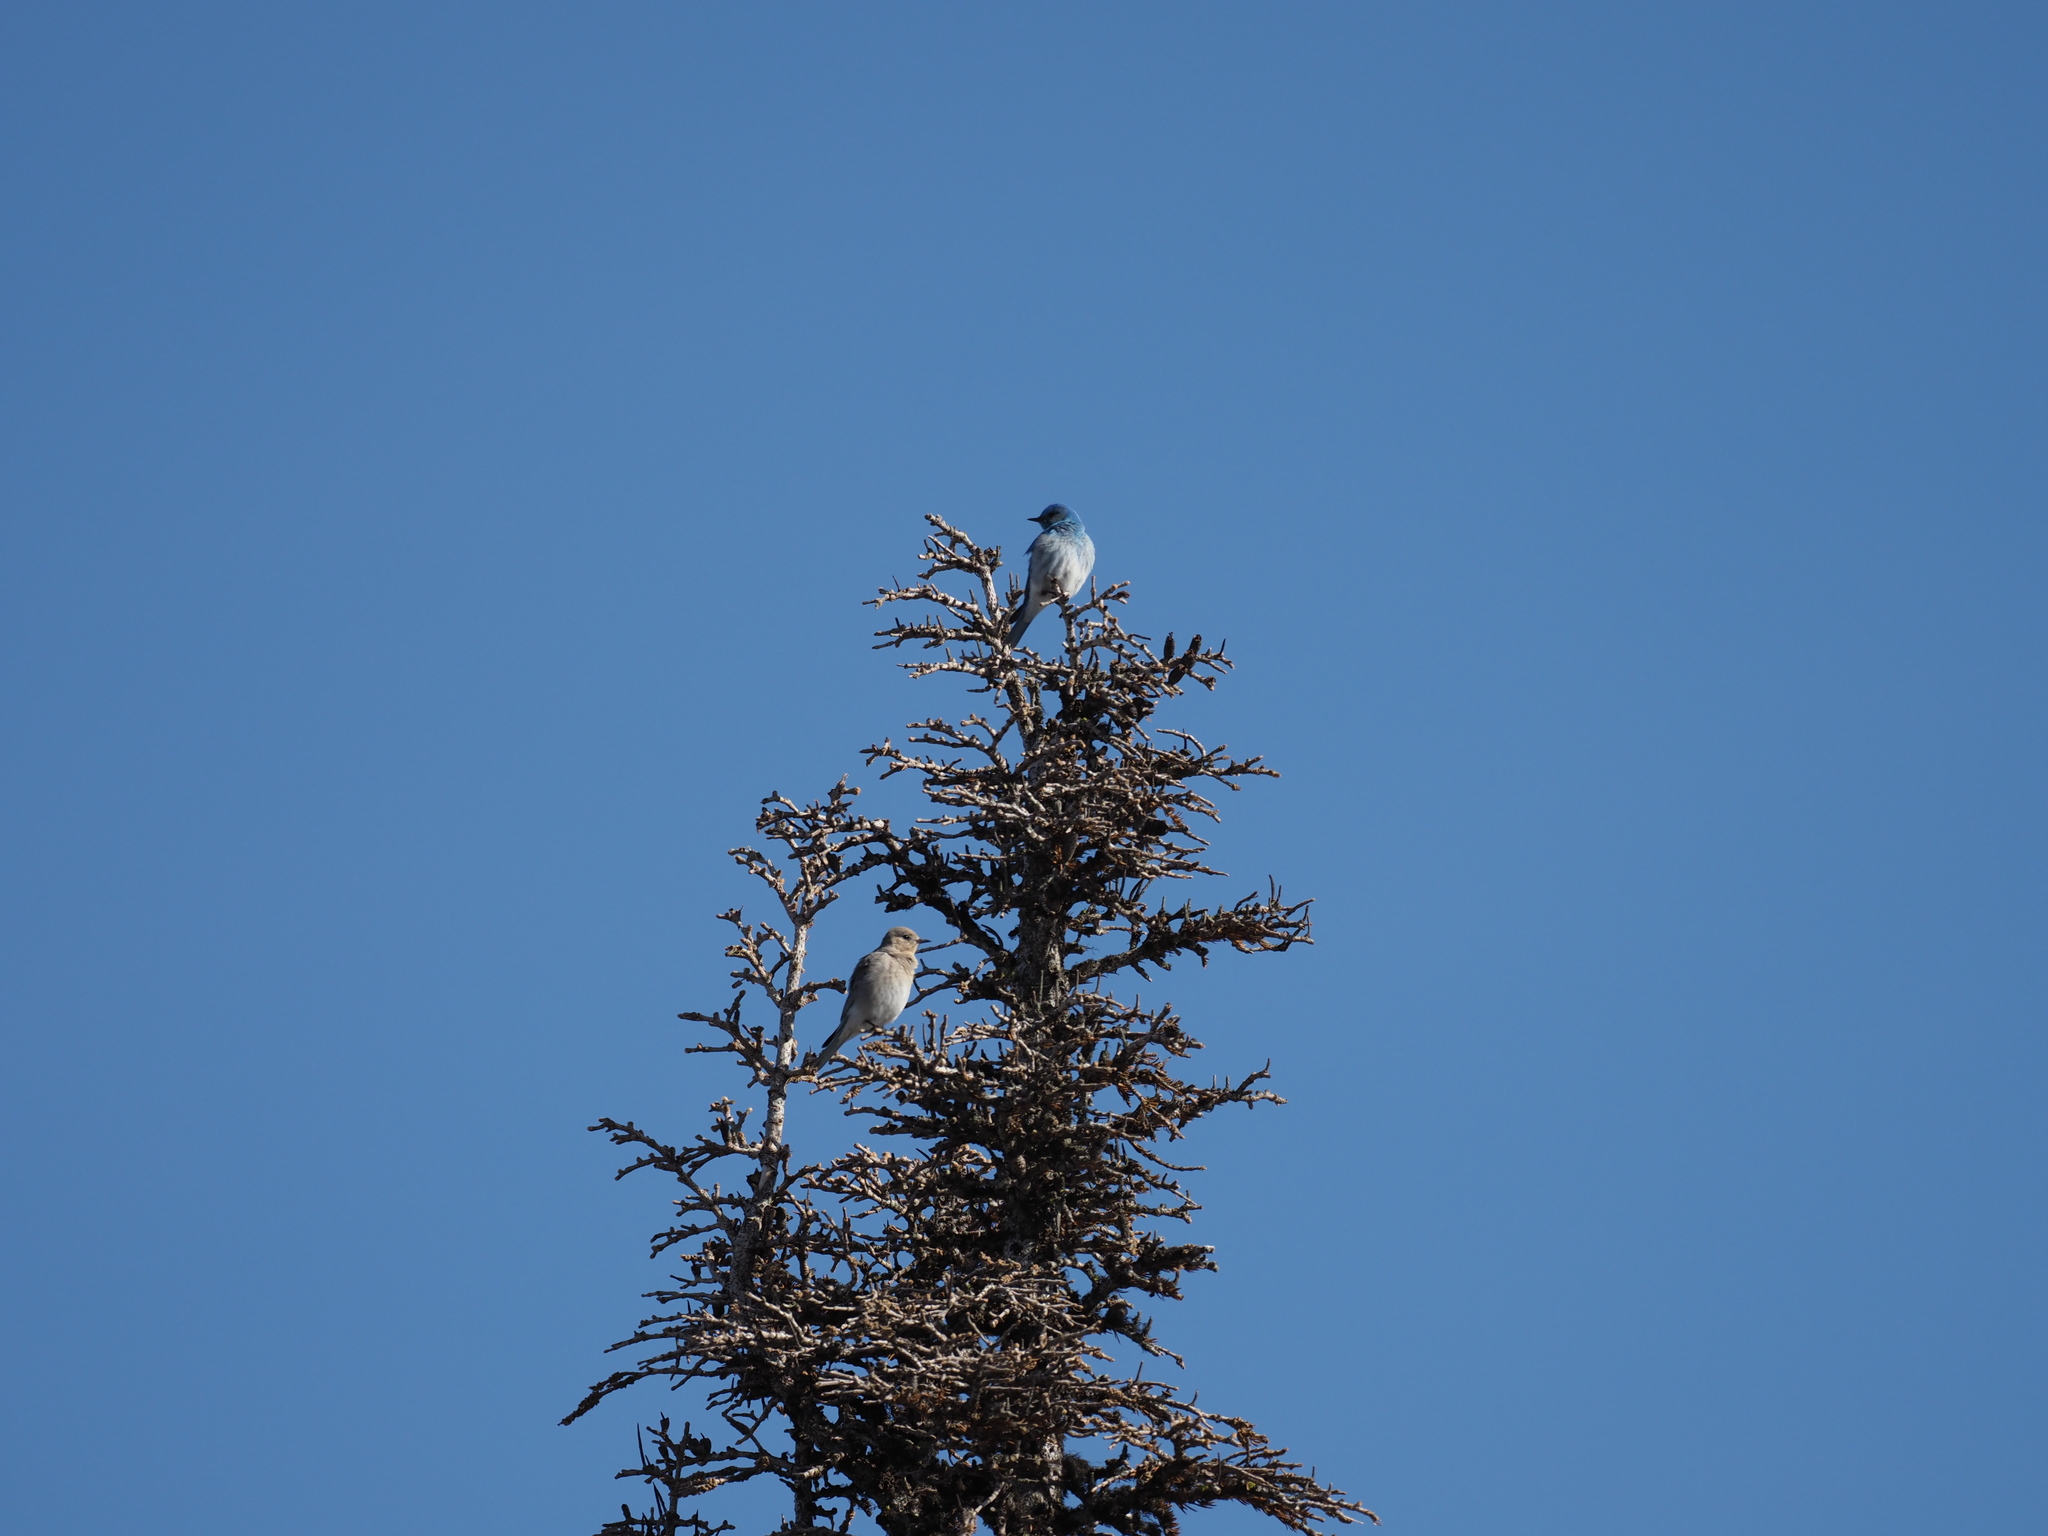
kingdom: Animalia
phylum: Chordata
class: Aves
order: Passeriformes
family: Turdidae
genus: Sialia
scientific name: Sialia currucoides
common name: Mountain bluebird
